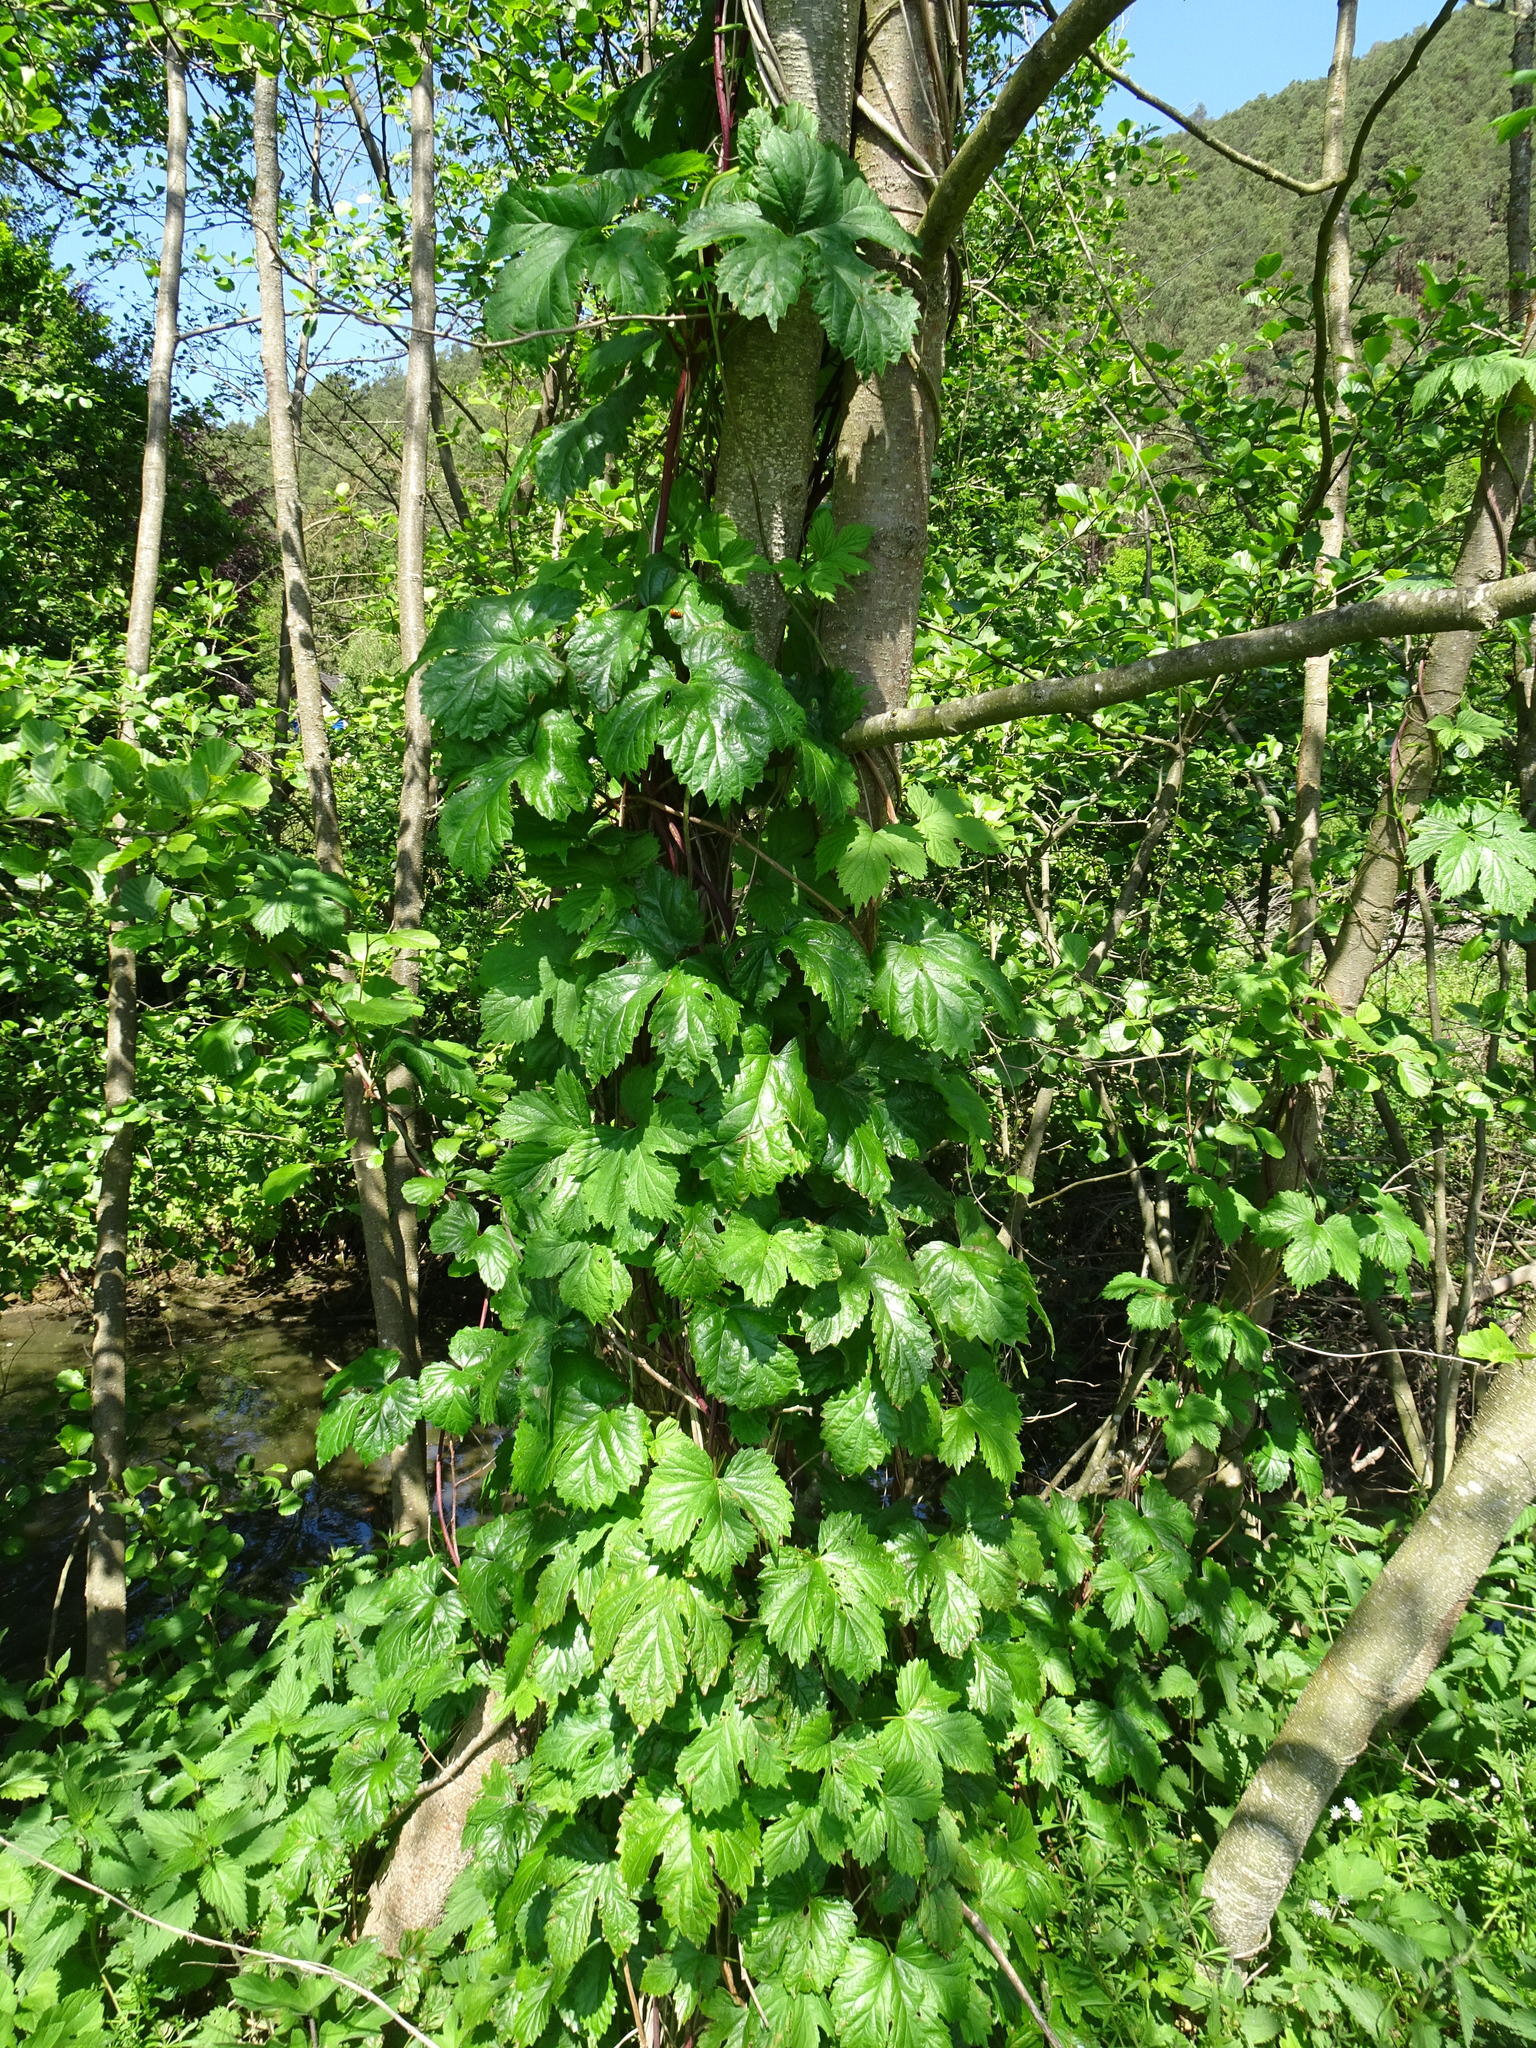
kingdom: Plantae
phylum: Tracheophyta
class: Magnoliopsida
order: Rosales
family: Cannabaceae
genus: Humulus
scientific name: Humulus lupulus
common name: Hop
